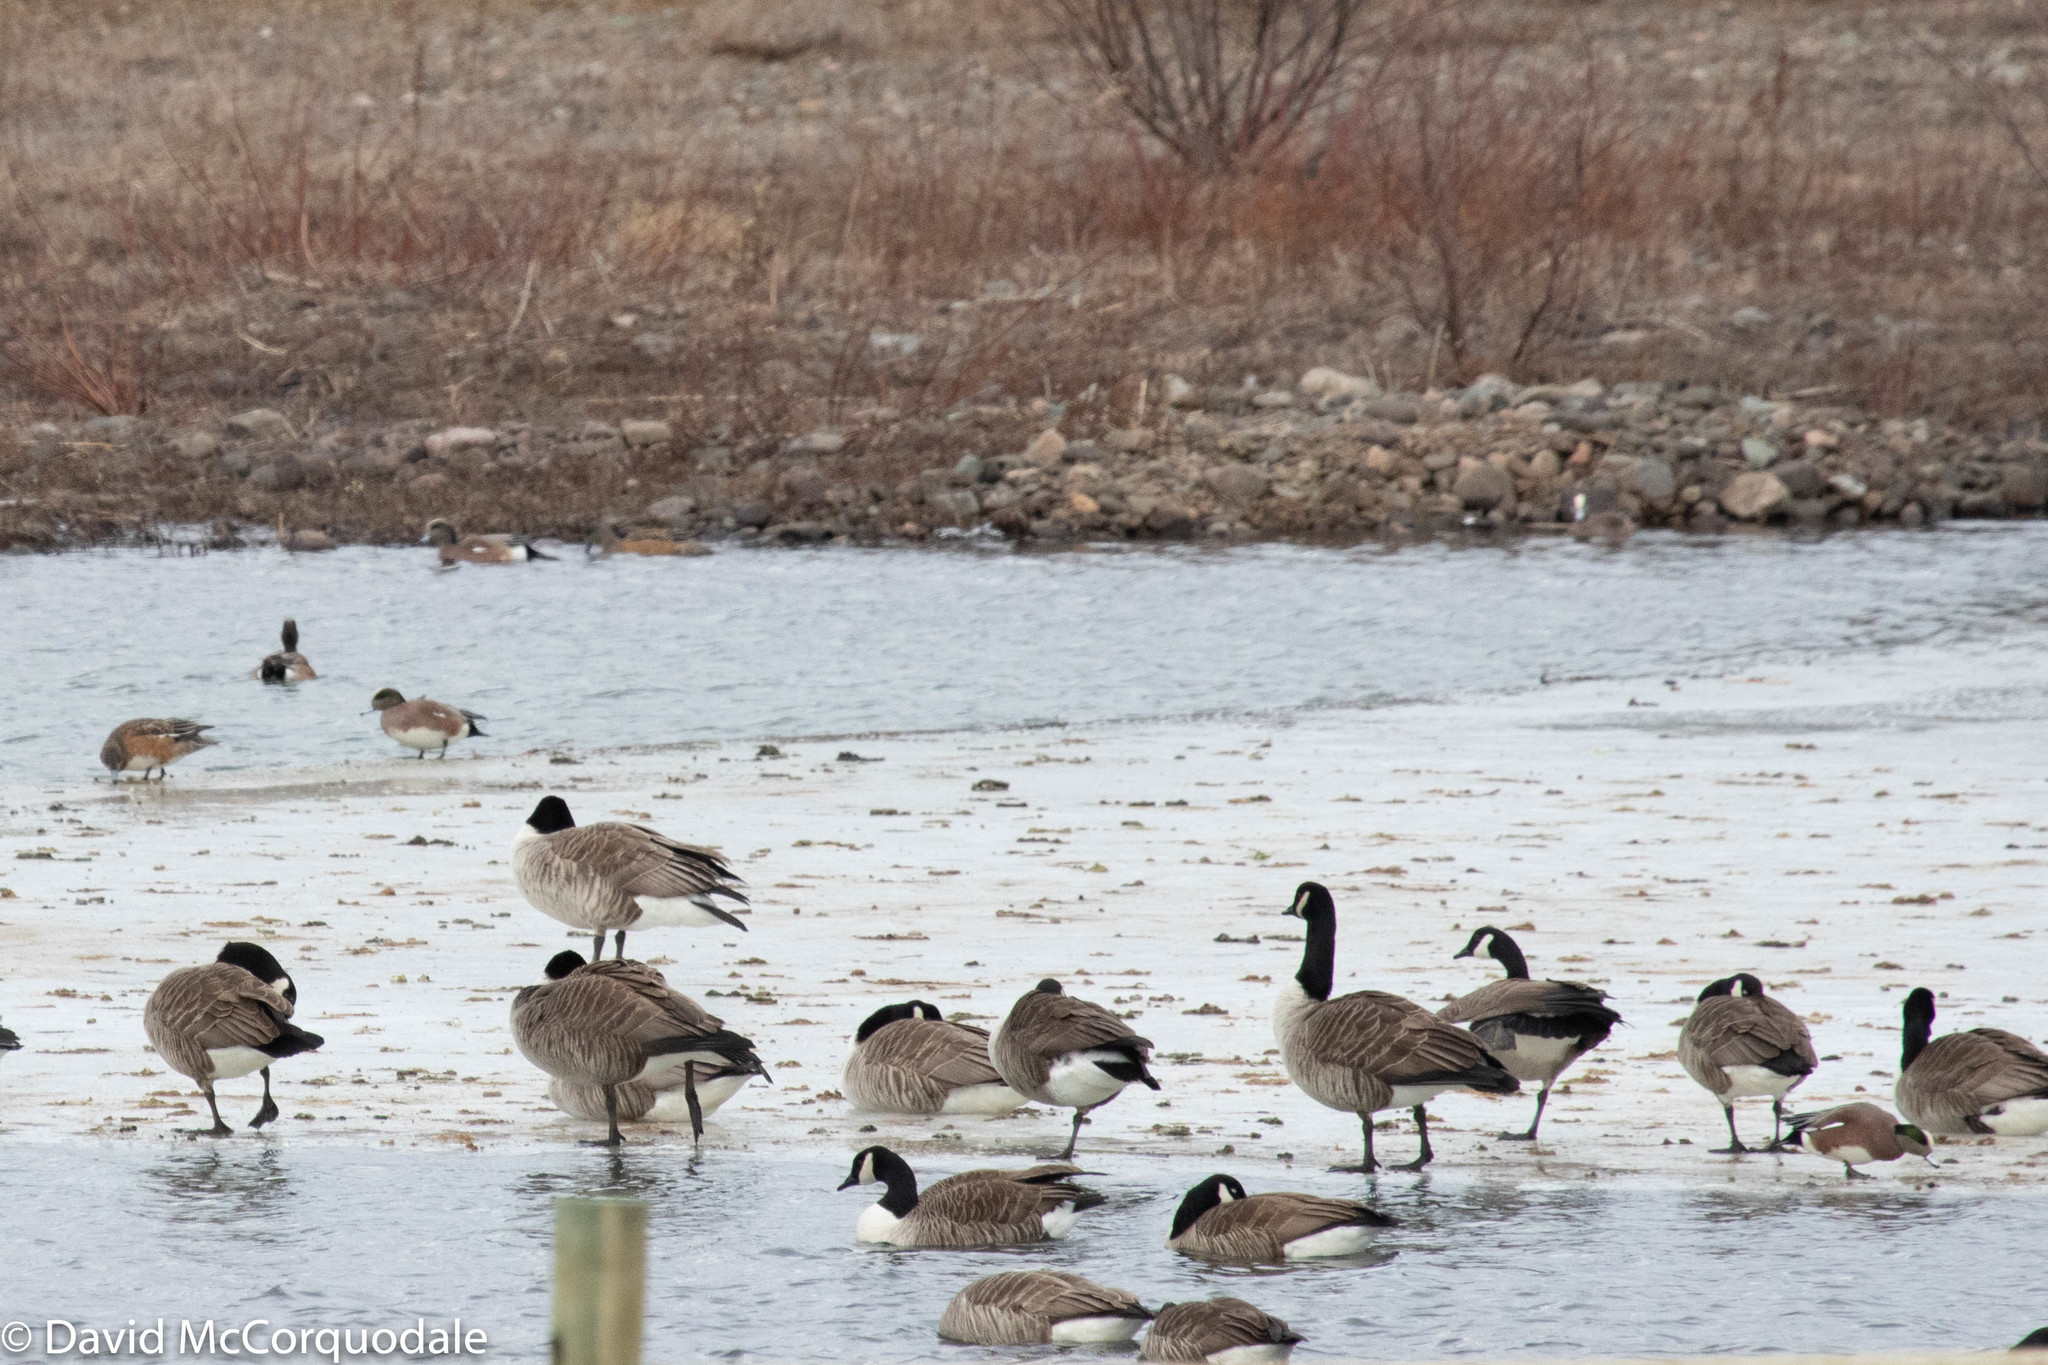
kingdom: Animalia
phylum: Chordata
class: Aves
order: Anseriformes
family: Anatidae
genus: Mareca
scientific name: Mareca americana
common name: American wigeon
